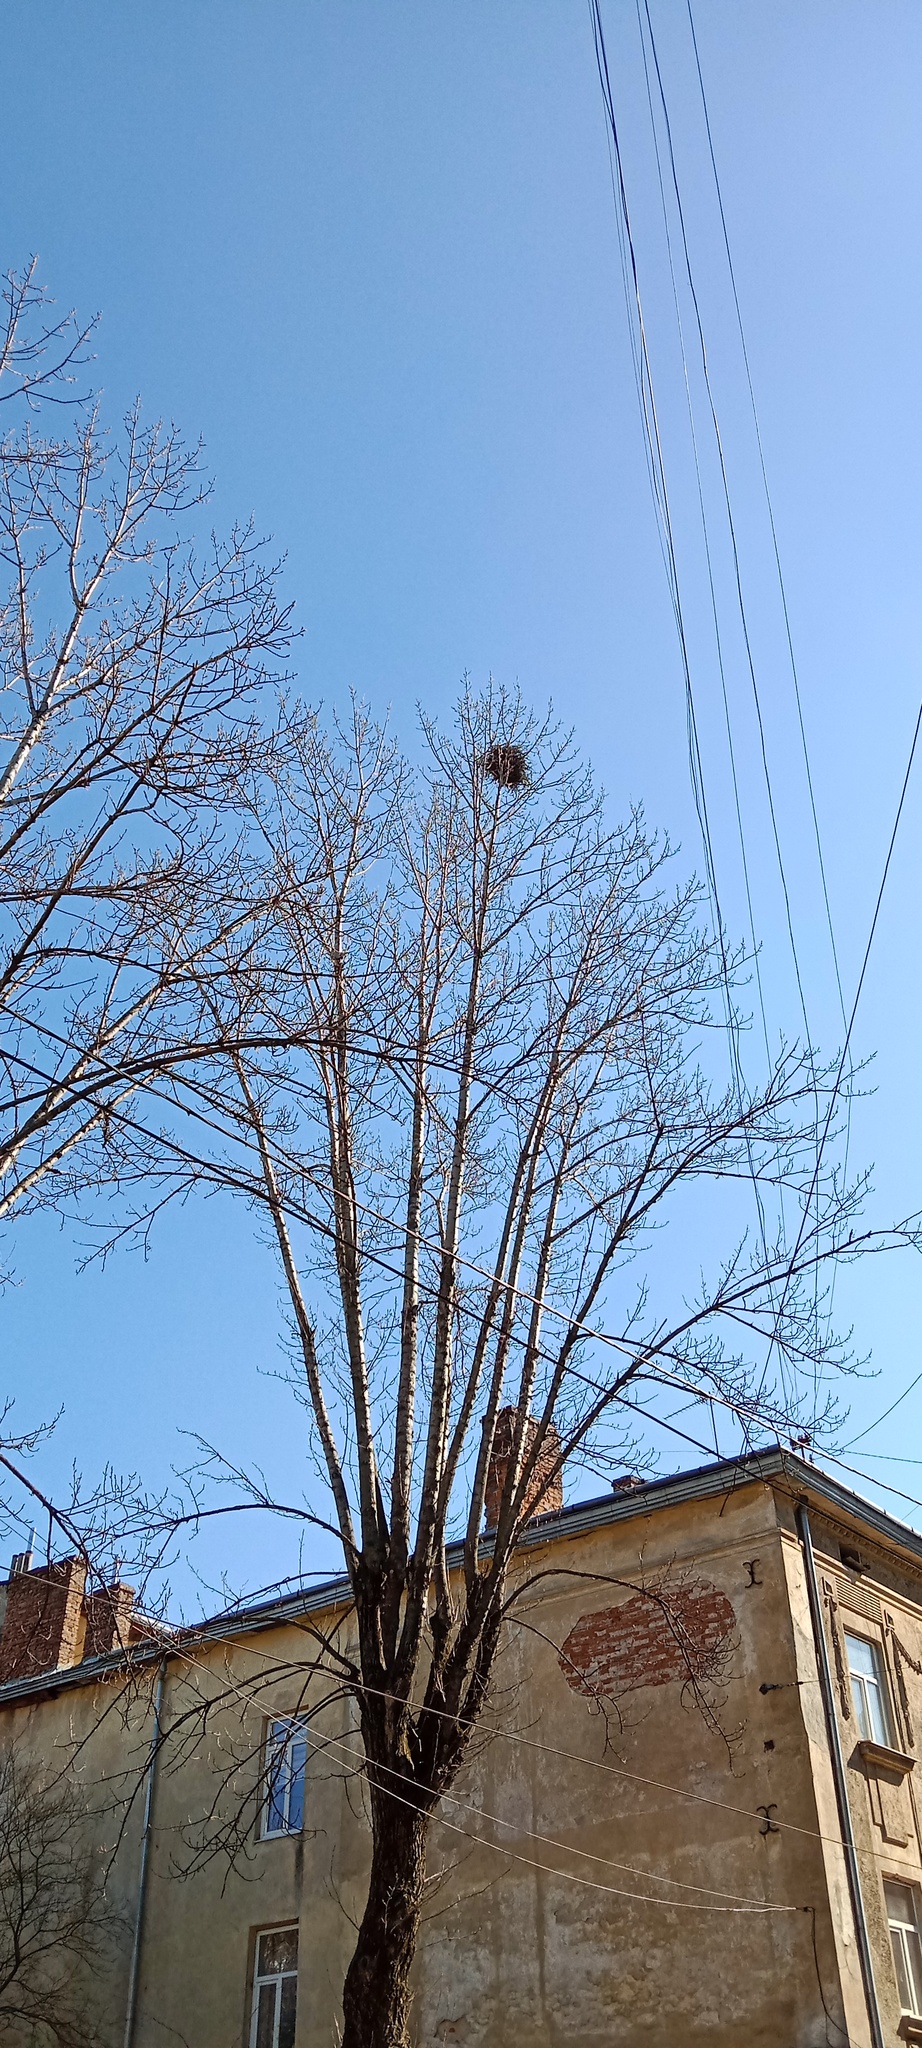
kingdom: Plantae
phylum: Tracheophyta
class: Magnoliopsida
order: Santalales
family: Viscaceae
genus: Viscum
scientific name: Viscum album
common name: Mistletoe
